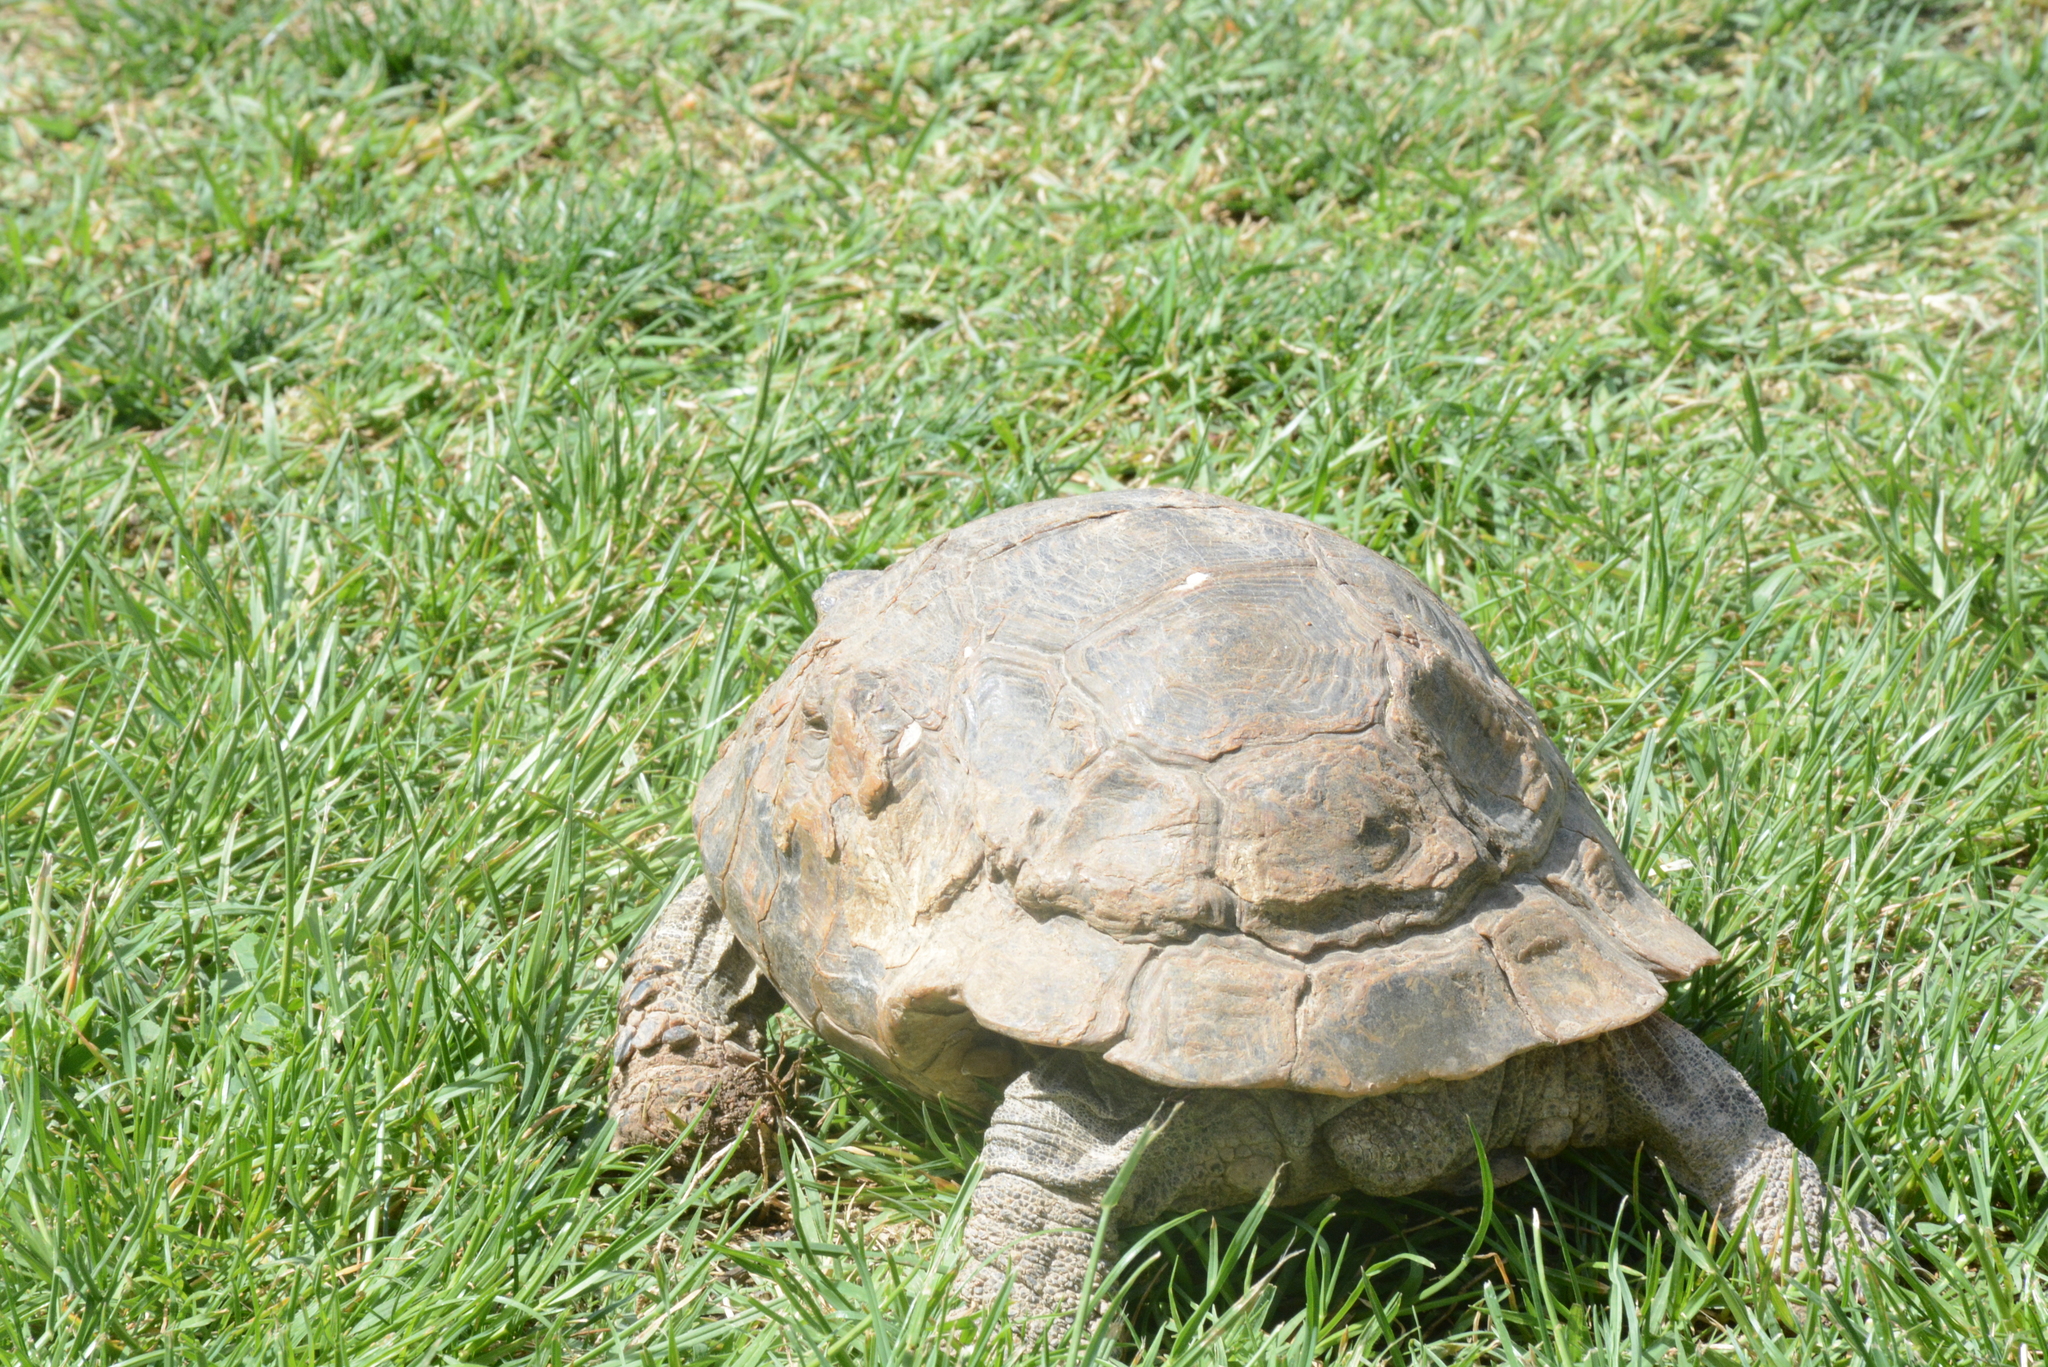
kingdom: Animalia
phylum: Chordata
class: Testudines
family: Testudinidae
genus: Testudo
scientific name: Testudo graeca
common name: Common tortoise
